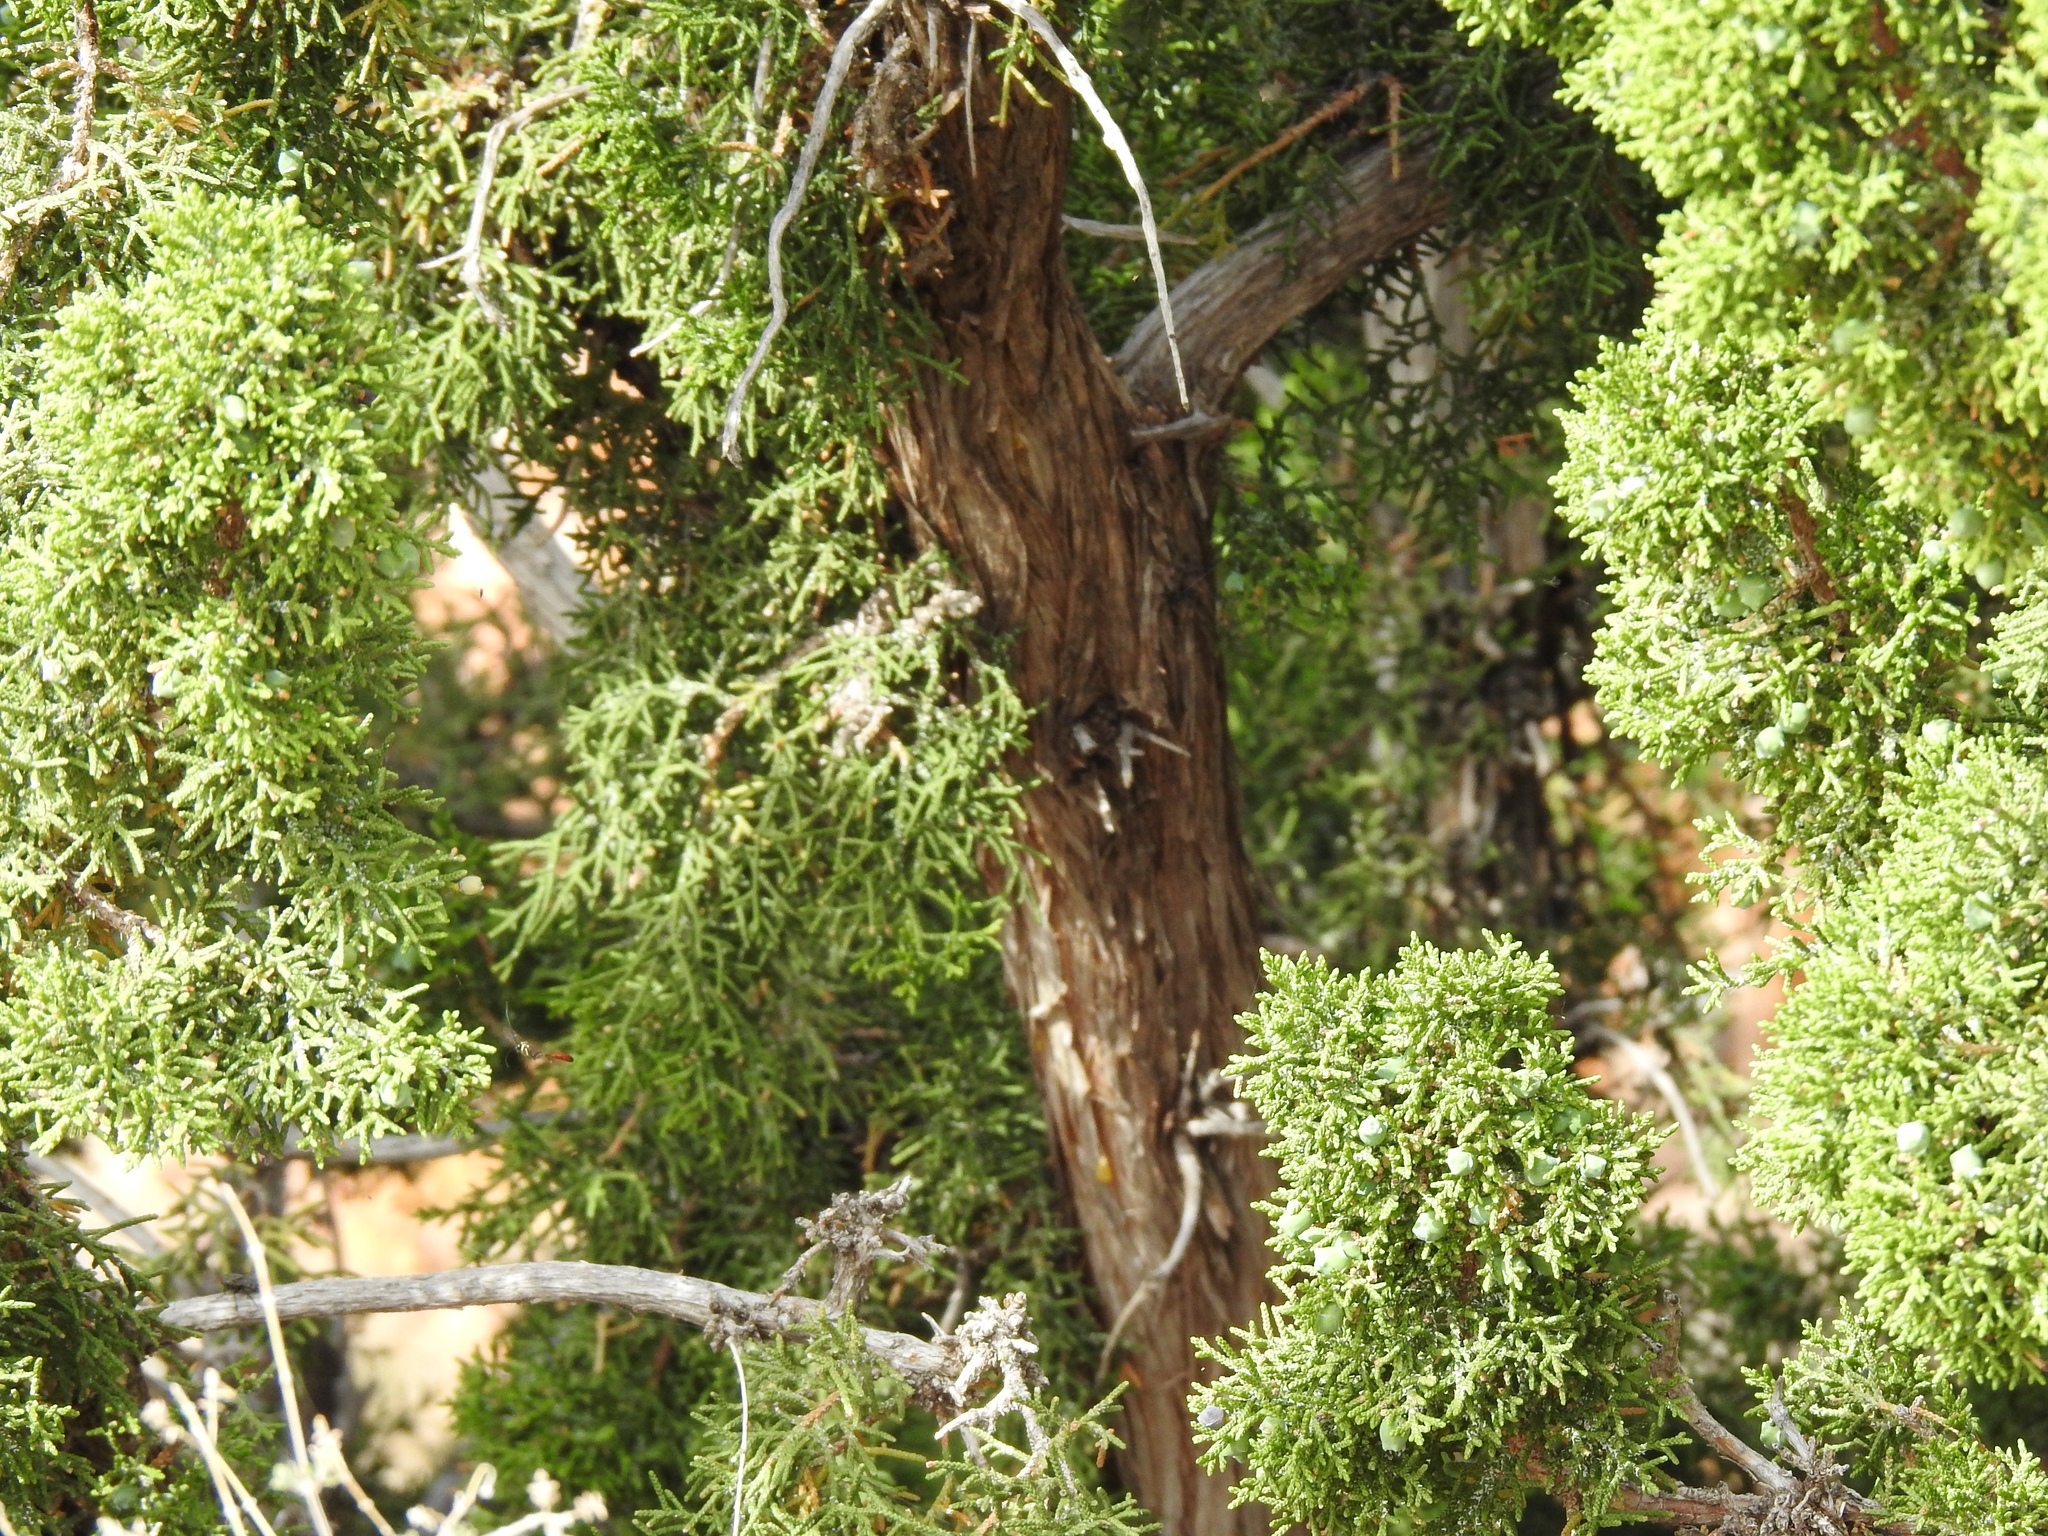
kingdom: Plantae
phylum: Tracheophyta
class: Pinopsida
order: Pinales
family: Cupressaceae
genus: Juniperus
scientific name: Juniperus osteosperma
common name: Utah juniper
